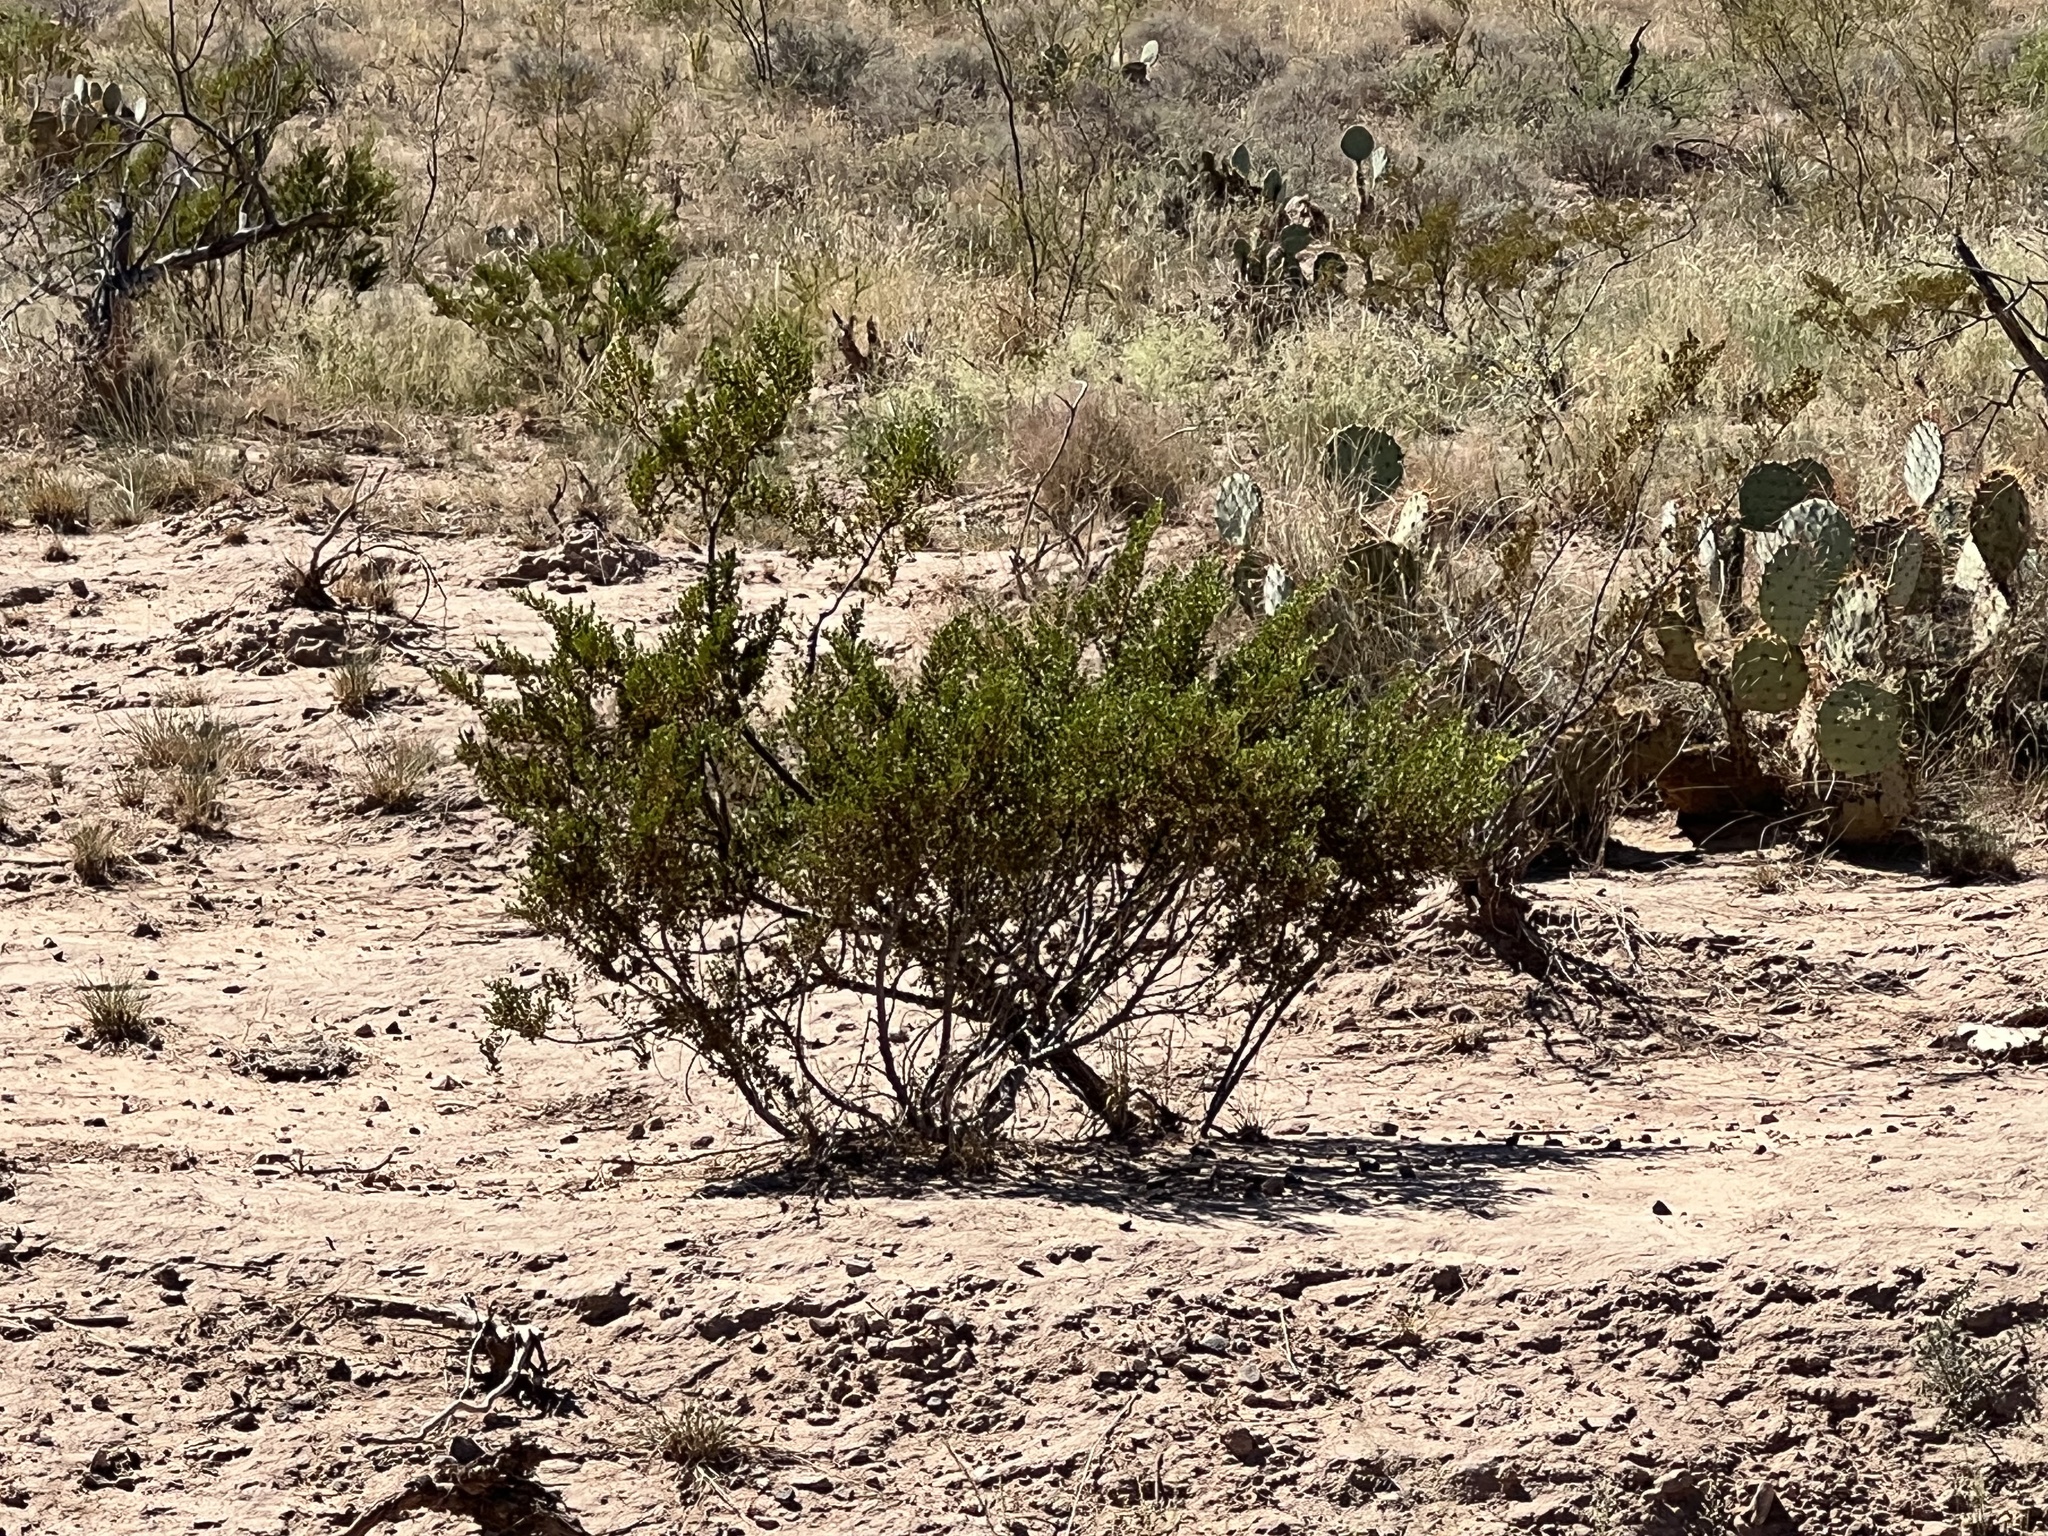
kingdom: Plantae
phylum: Tracheophyta
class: Magnoliopsida
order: Zygophyllales
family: Zygophyllaceae
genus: Larrea
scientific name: Larrea tridentata
